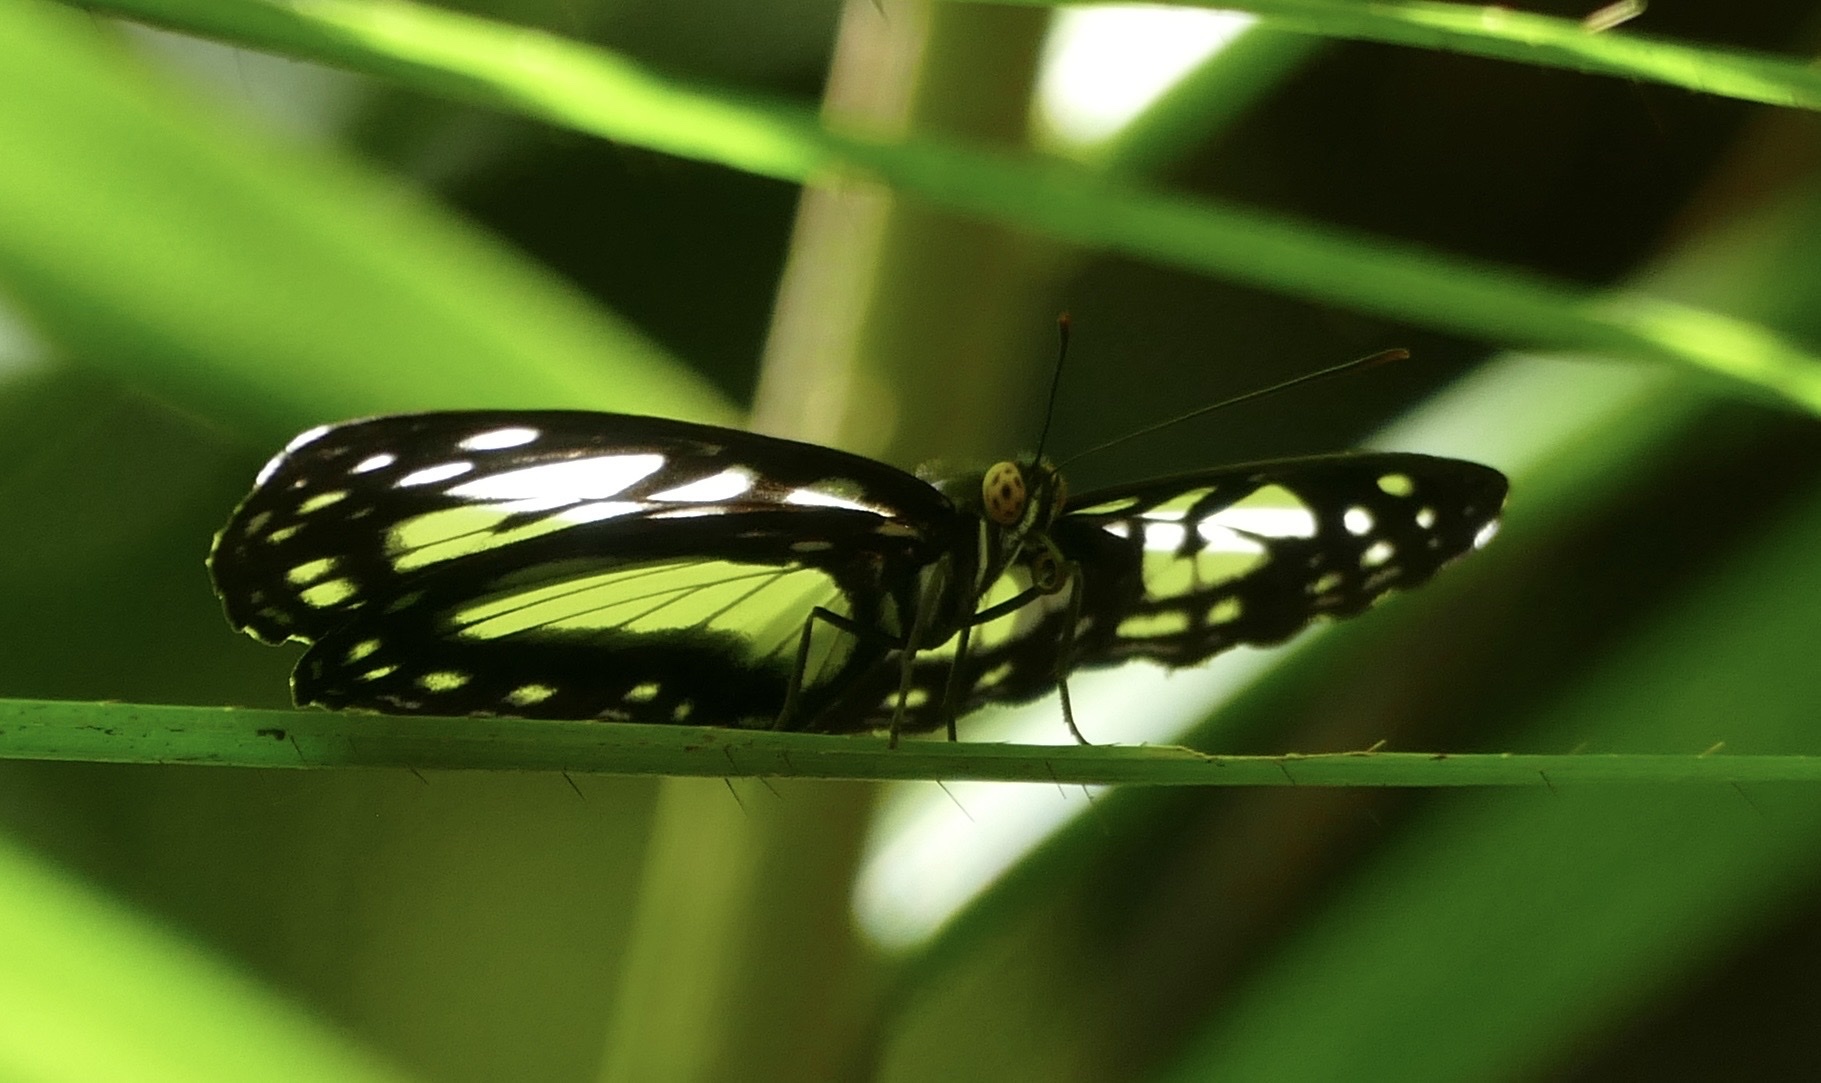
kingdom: Animalia
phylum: Arthropoda
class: Insecta
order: Lepidoptera
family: Nymphalidae
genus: Neptis
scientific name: Neptis praslini
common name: Yellow-eyed plane
